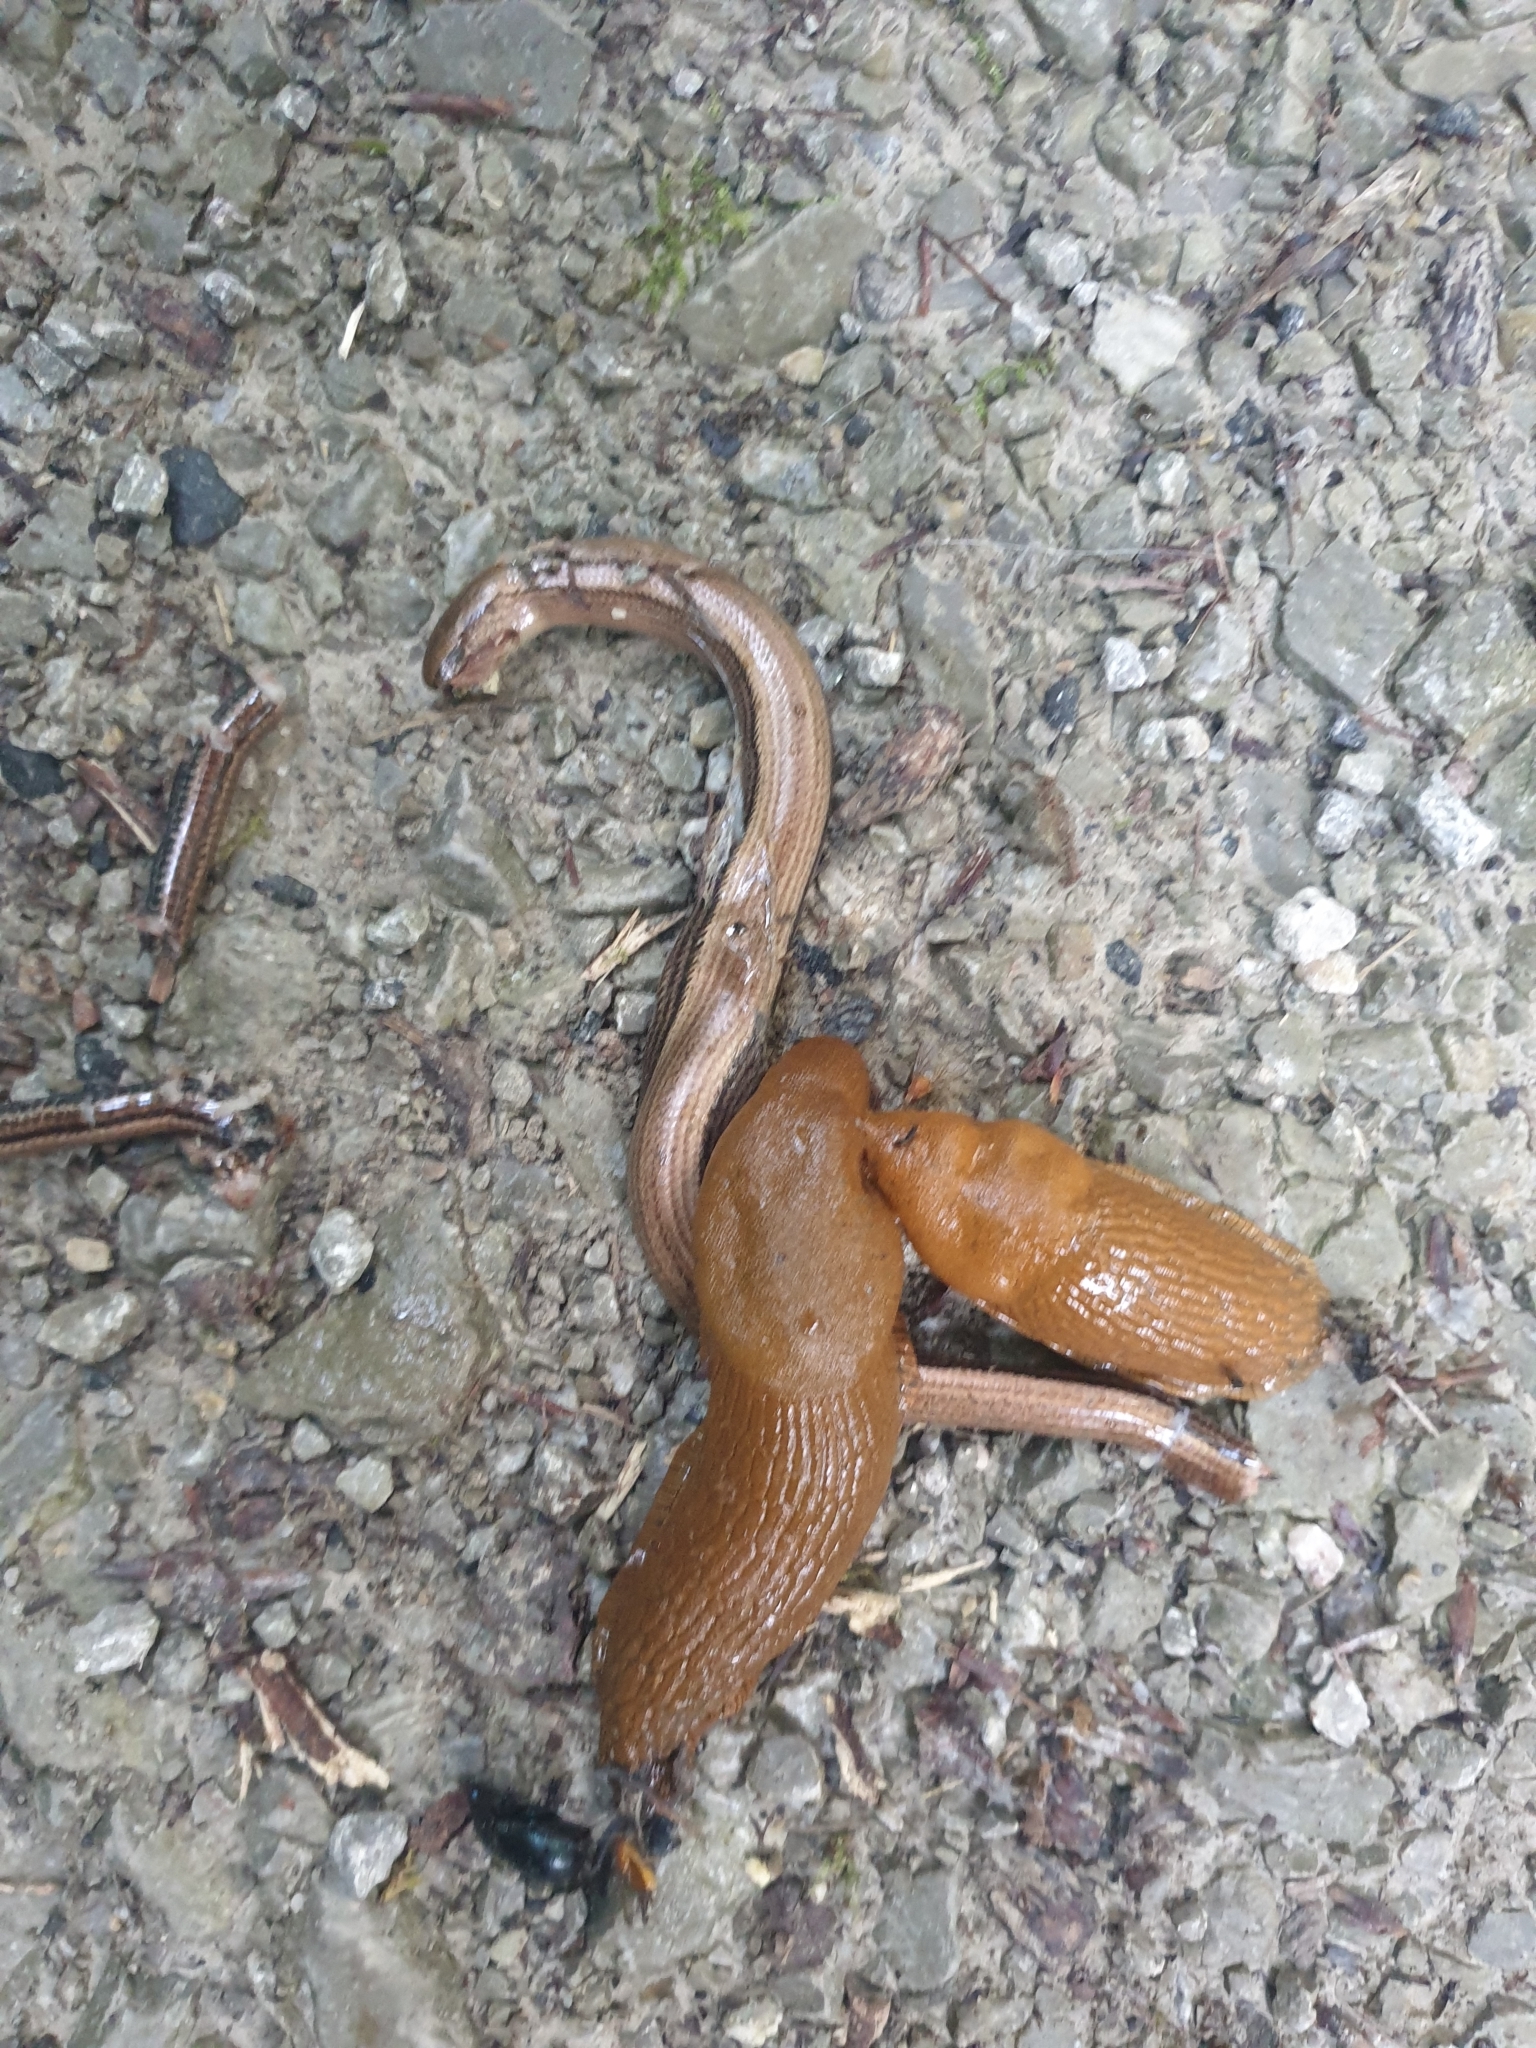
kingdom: Animalia
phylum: Chordata
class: Squamata
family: Anguidae
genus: Anguis
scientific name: Anguis fragilis
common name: Slow worm
